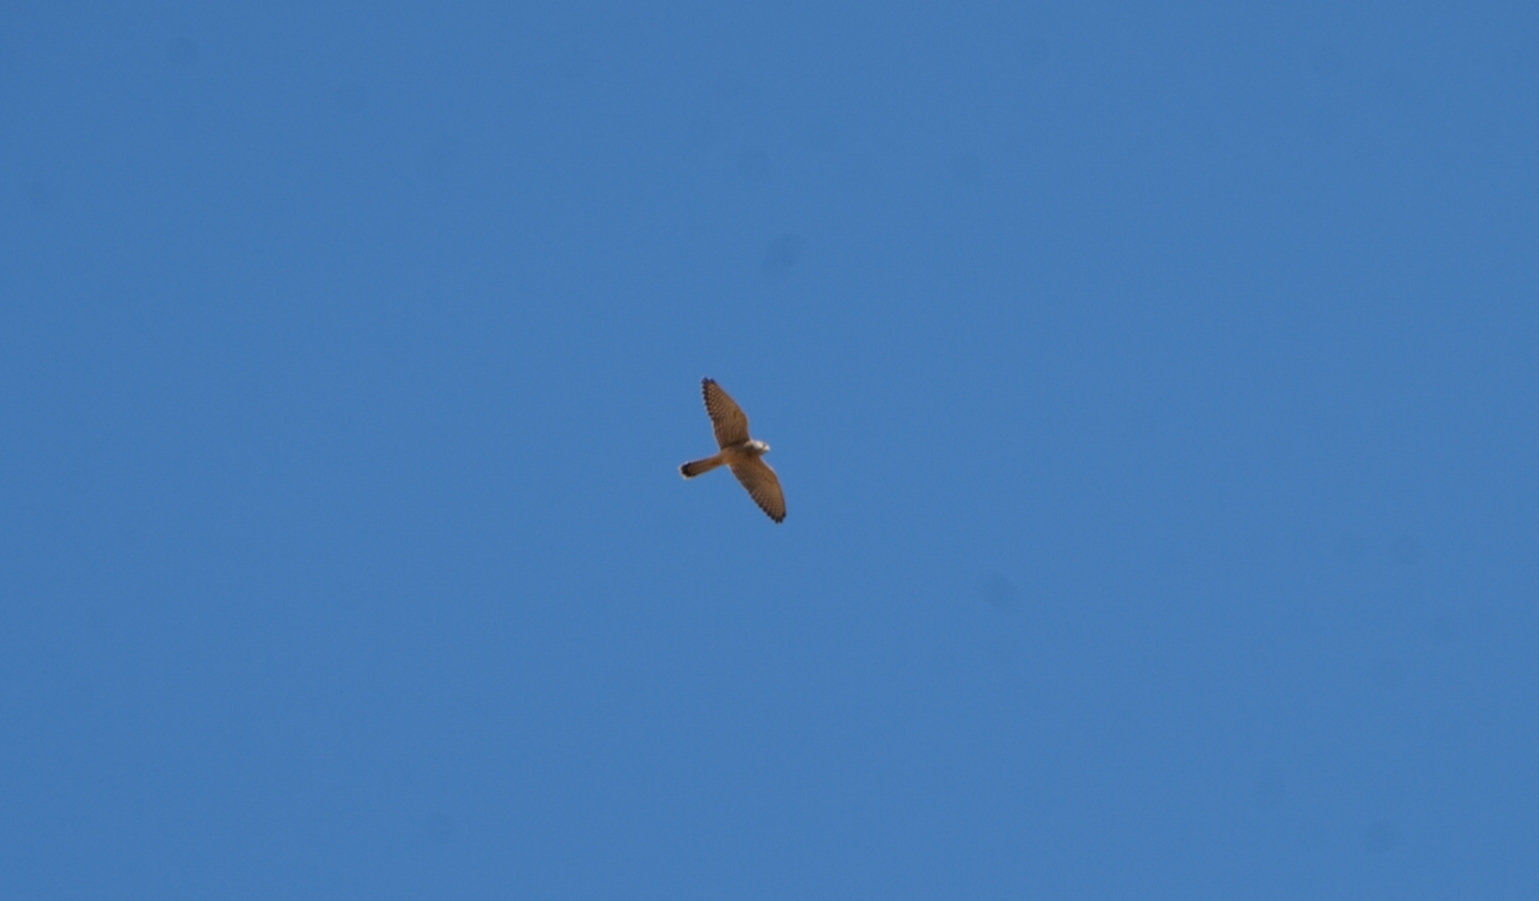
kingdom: Animalia
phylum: Chordata
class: Aves
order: Falconiformes
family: Falconidae
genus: Falco
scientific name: Falco tinnunculus
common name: Common kestrel
